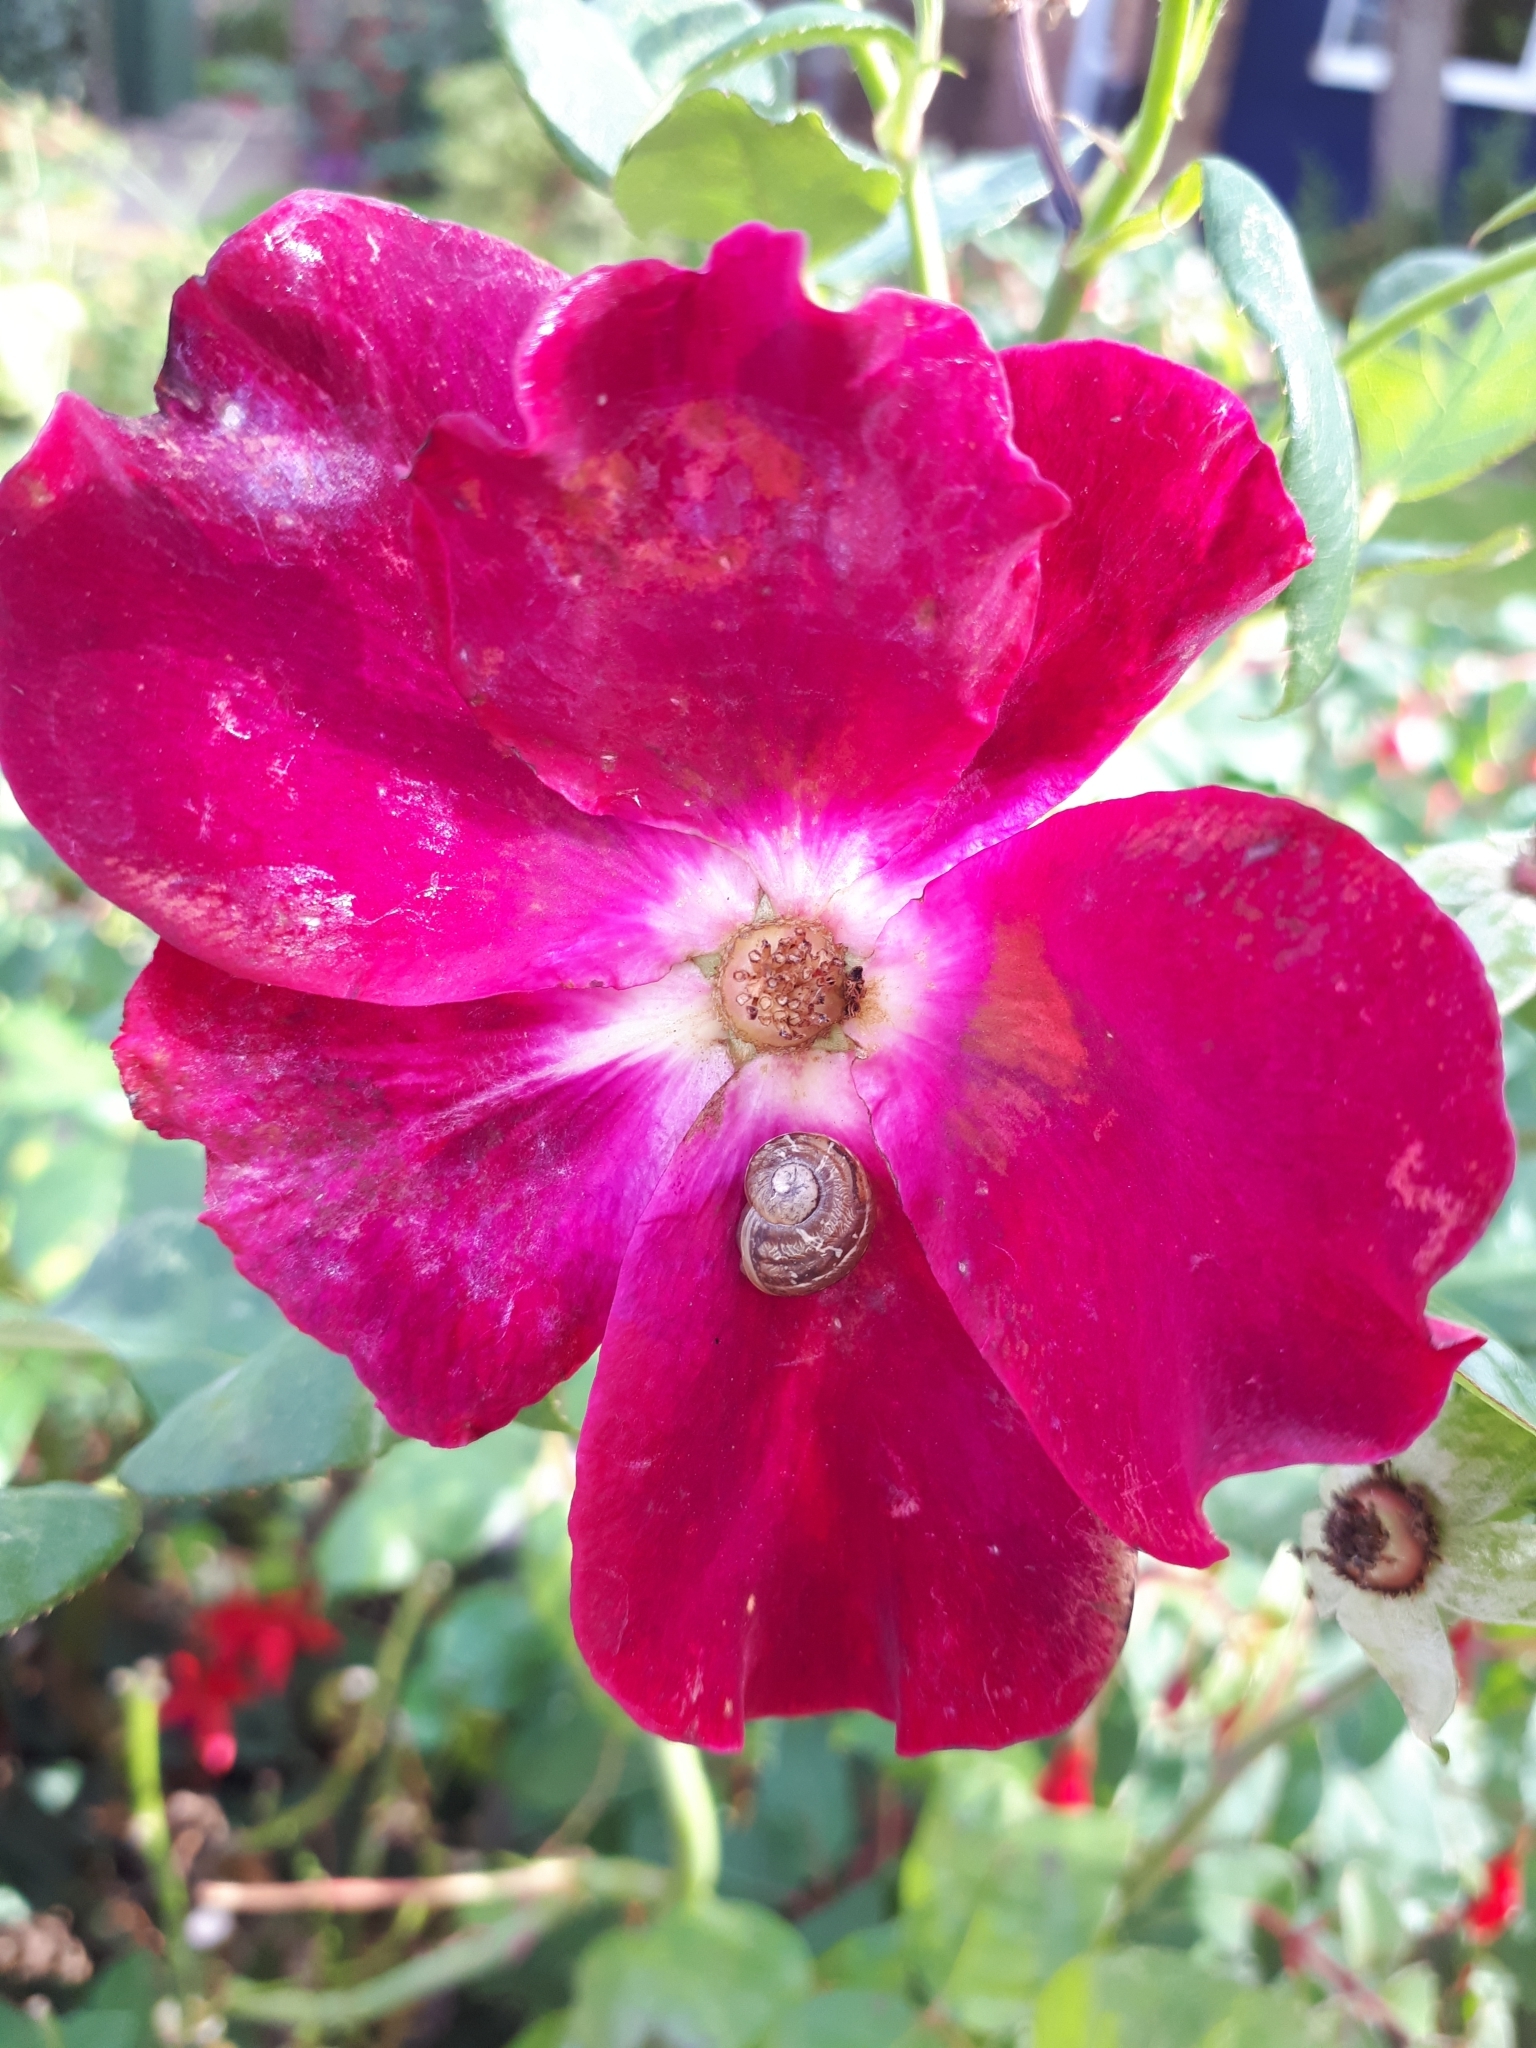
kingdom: Animalia
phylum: Mollusca
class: Gastropoda
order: Stylommatophora
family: Helicidae
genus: Cornu
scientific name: Cornu aspersum
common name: Brown garden snail
